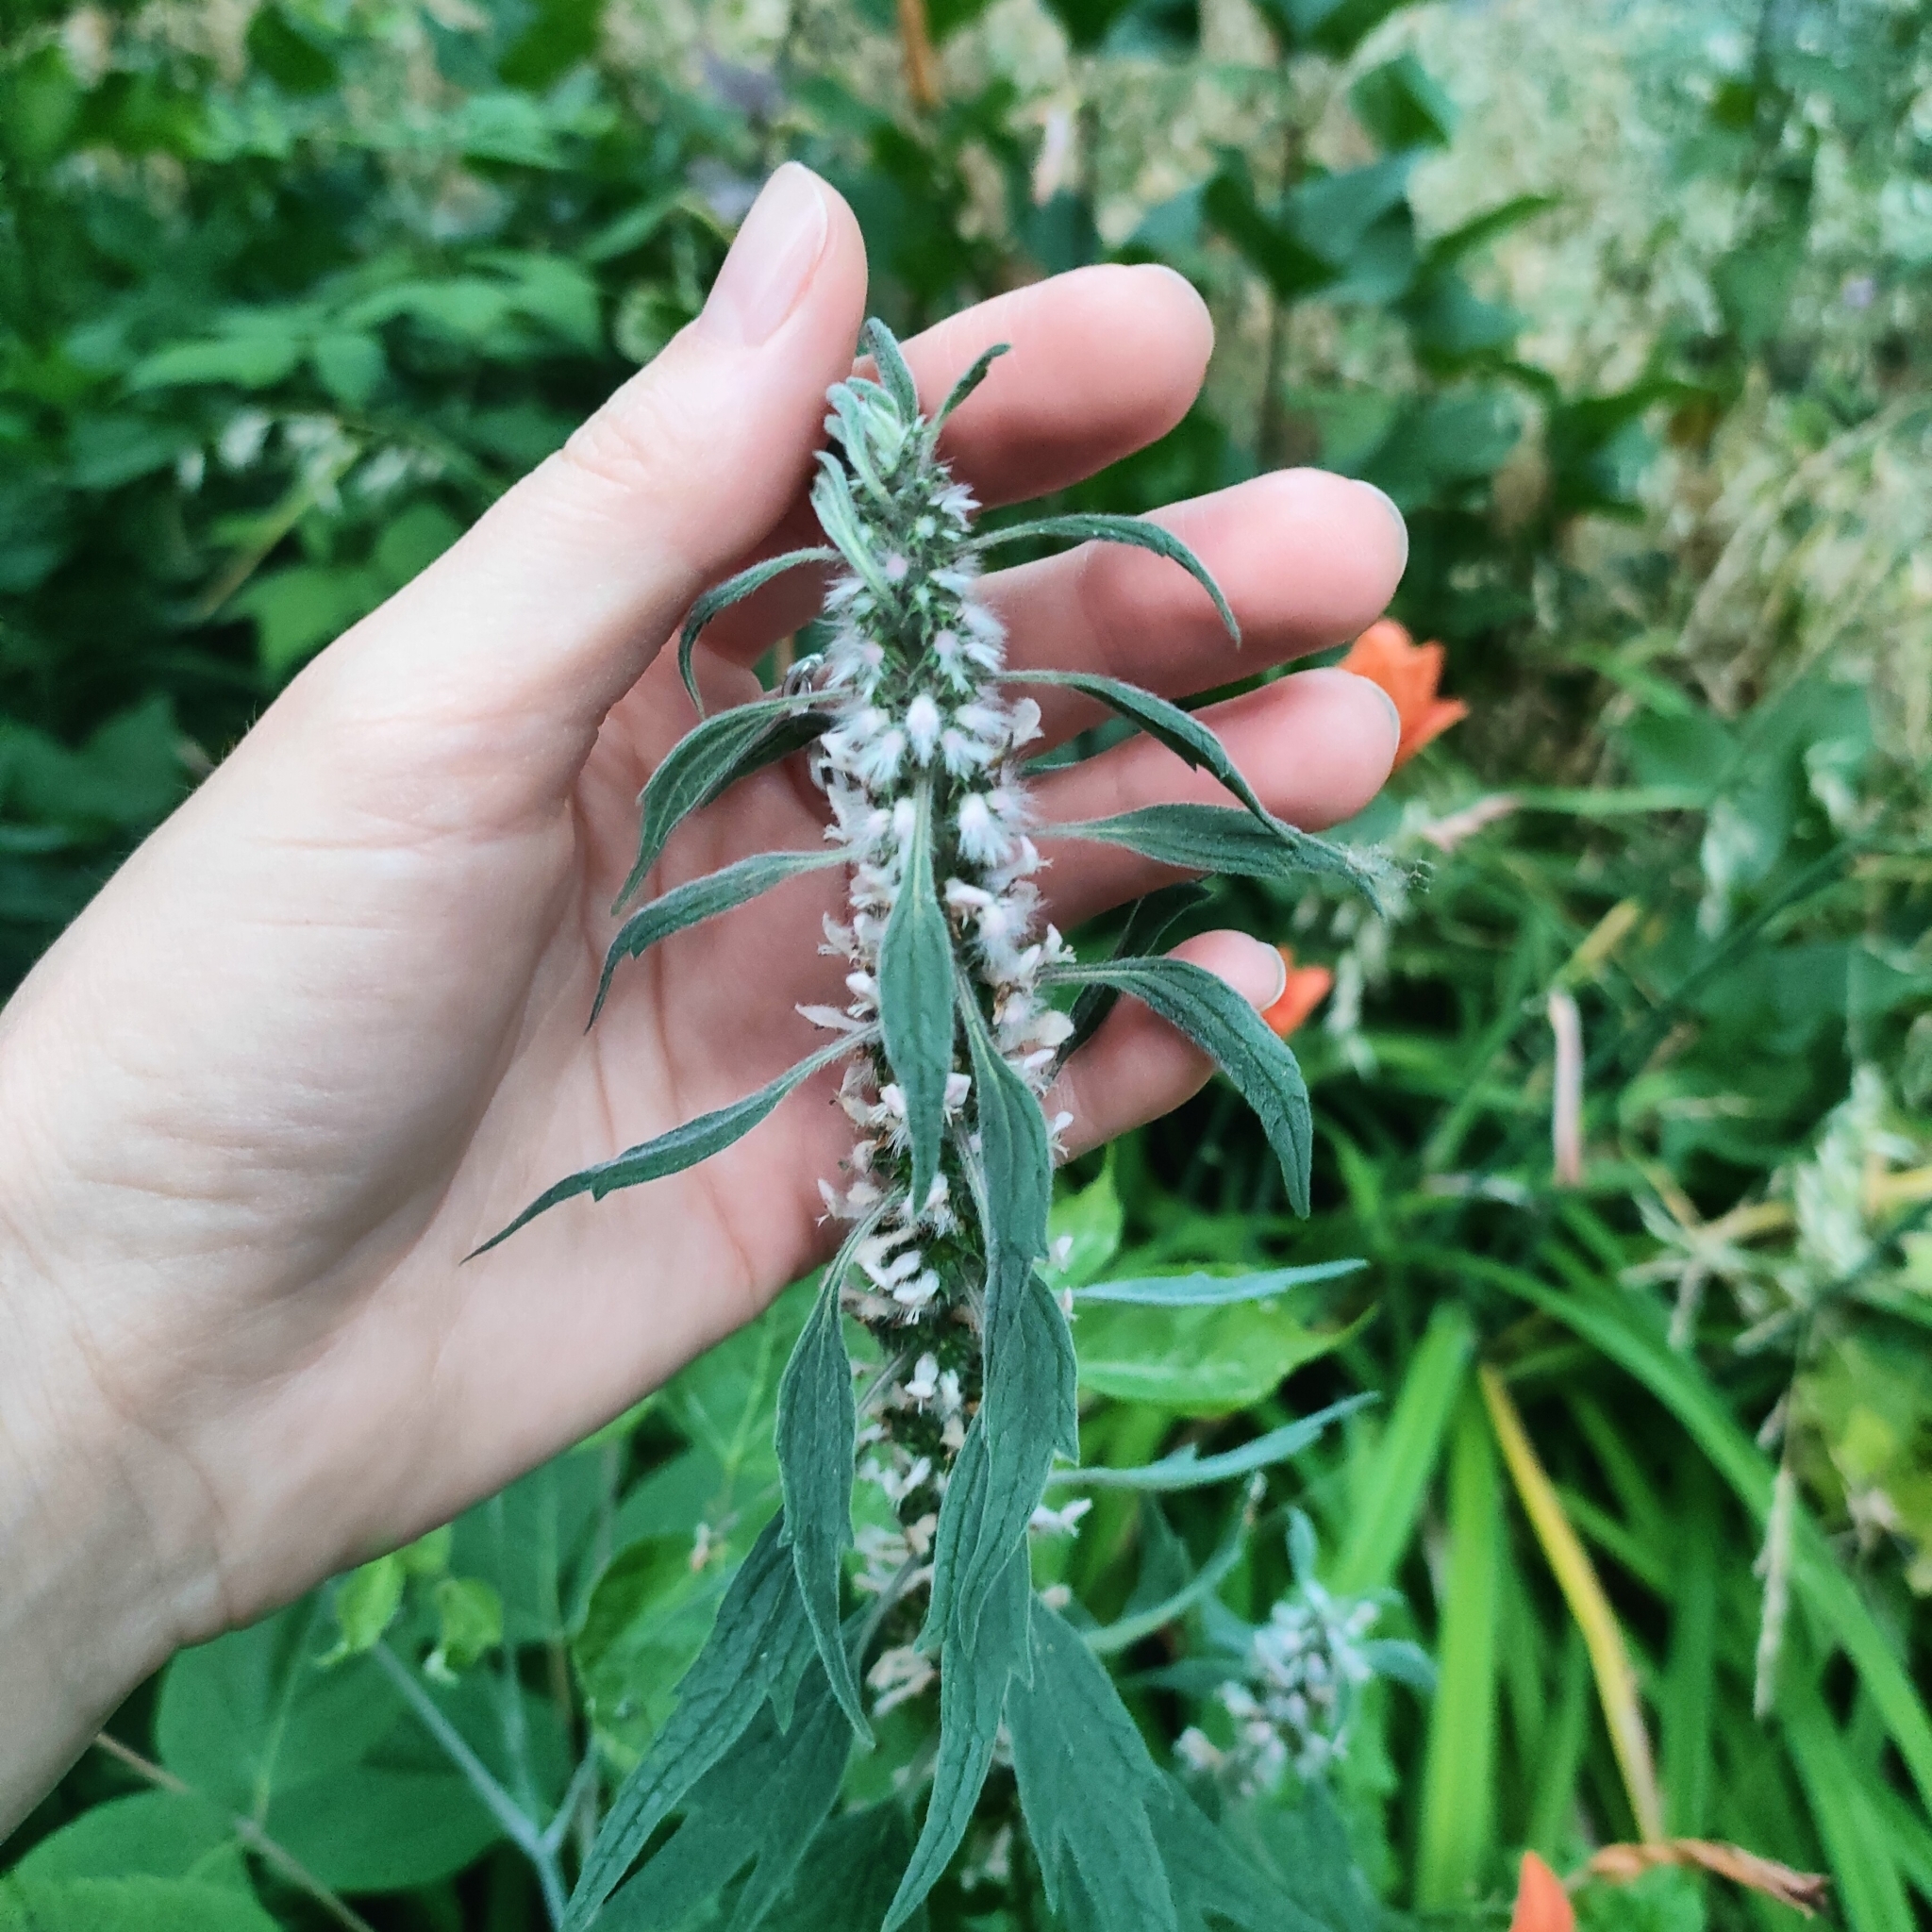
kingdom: Plantae
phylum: Tracheophyta
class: Magnoliopsida
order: Lamiales
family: Lamiaceae
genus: Leonurus
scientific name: Leonurus quinquelobatus
